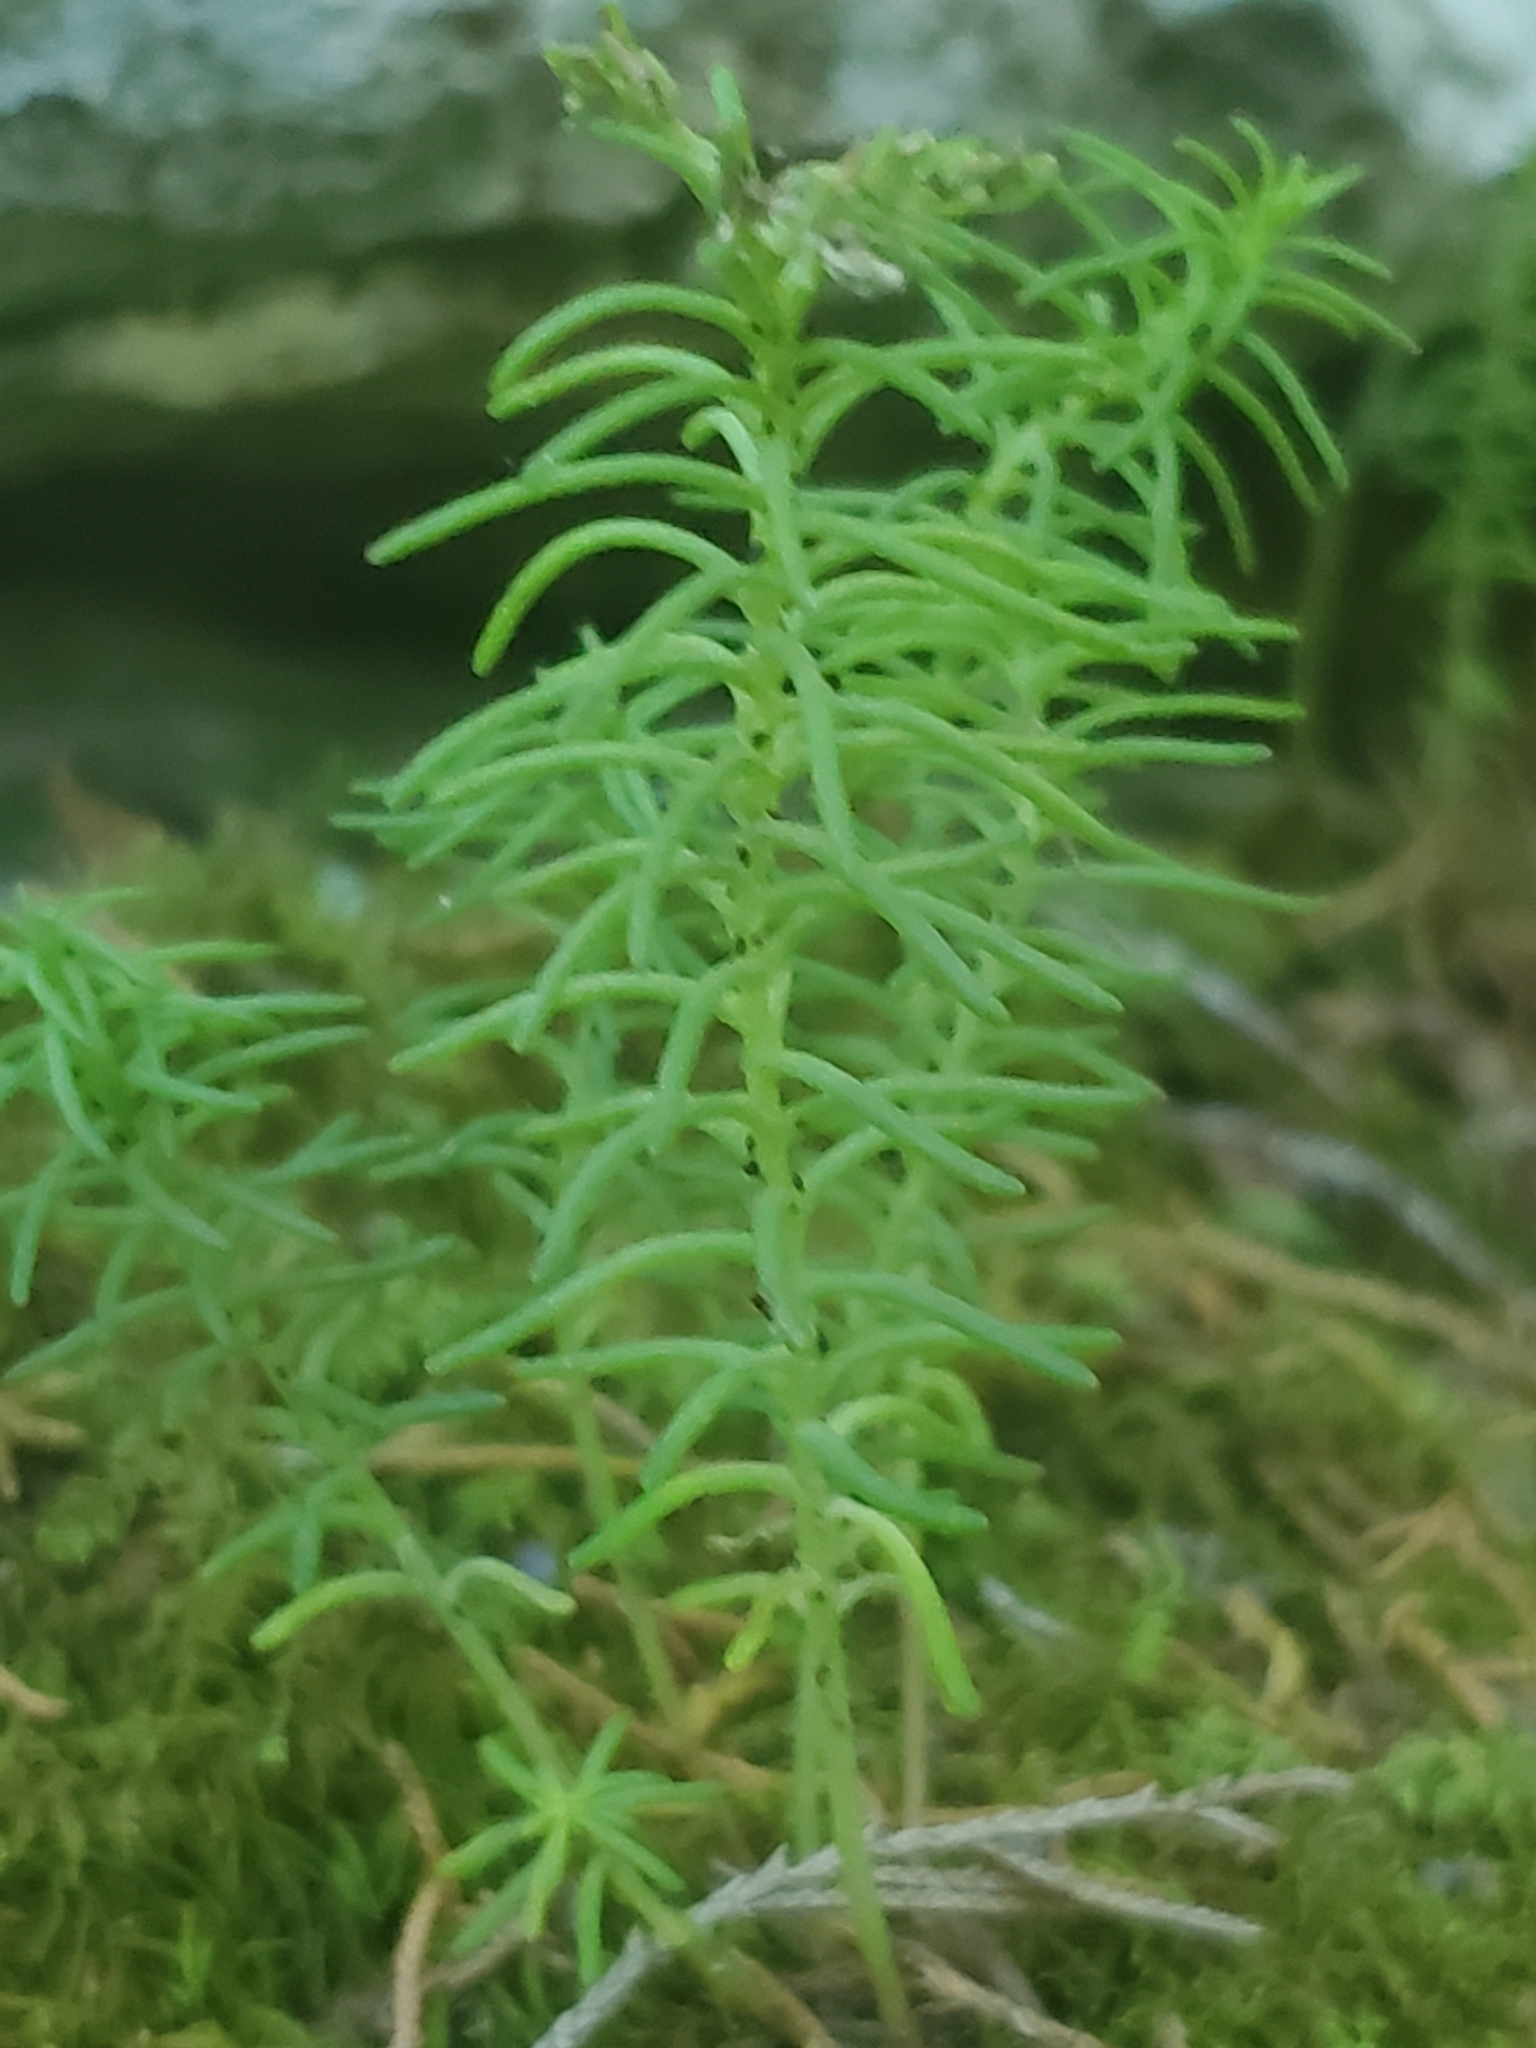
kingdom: Plantae
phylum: Tracheophyta
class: Magnoliopsida
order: Saxifragales
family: Crassulaceae
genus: Sedum
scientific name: Sedum pulchellum
